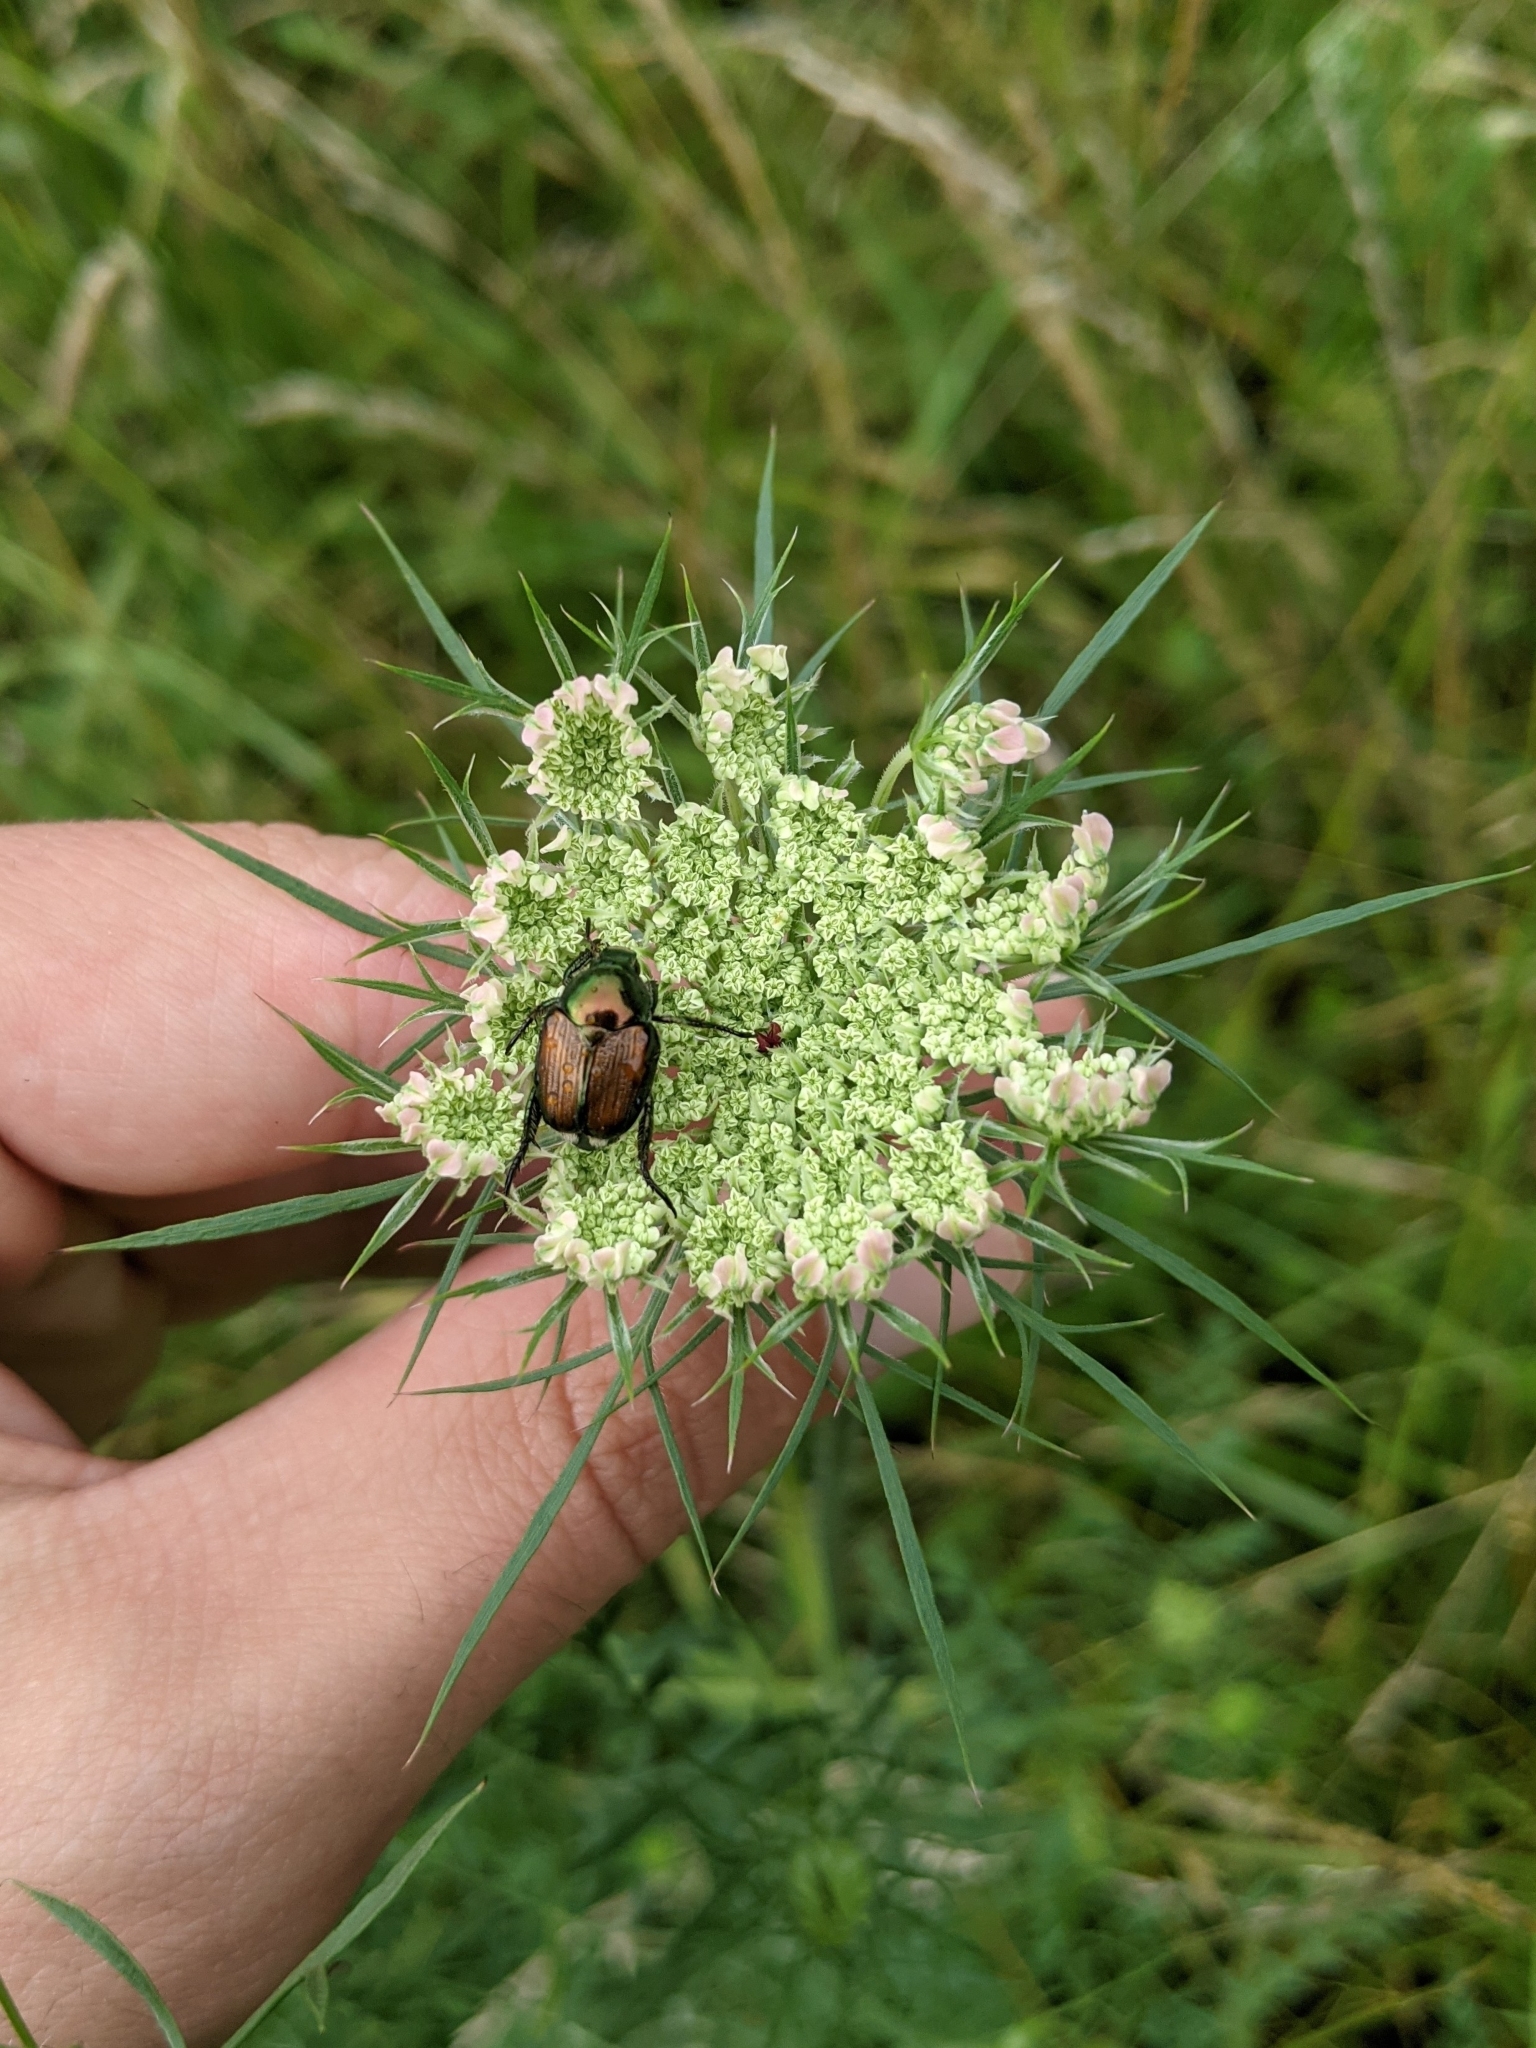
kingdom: Plantae
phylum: Tracheophyta
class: Magnoliopsida
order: Apiales
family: Apiaceae
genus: Daucus
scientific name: Daucus carota
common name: Wild carrot
